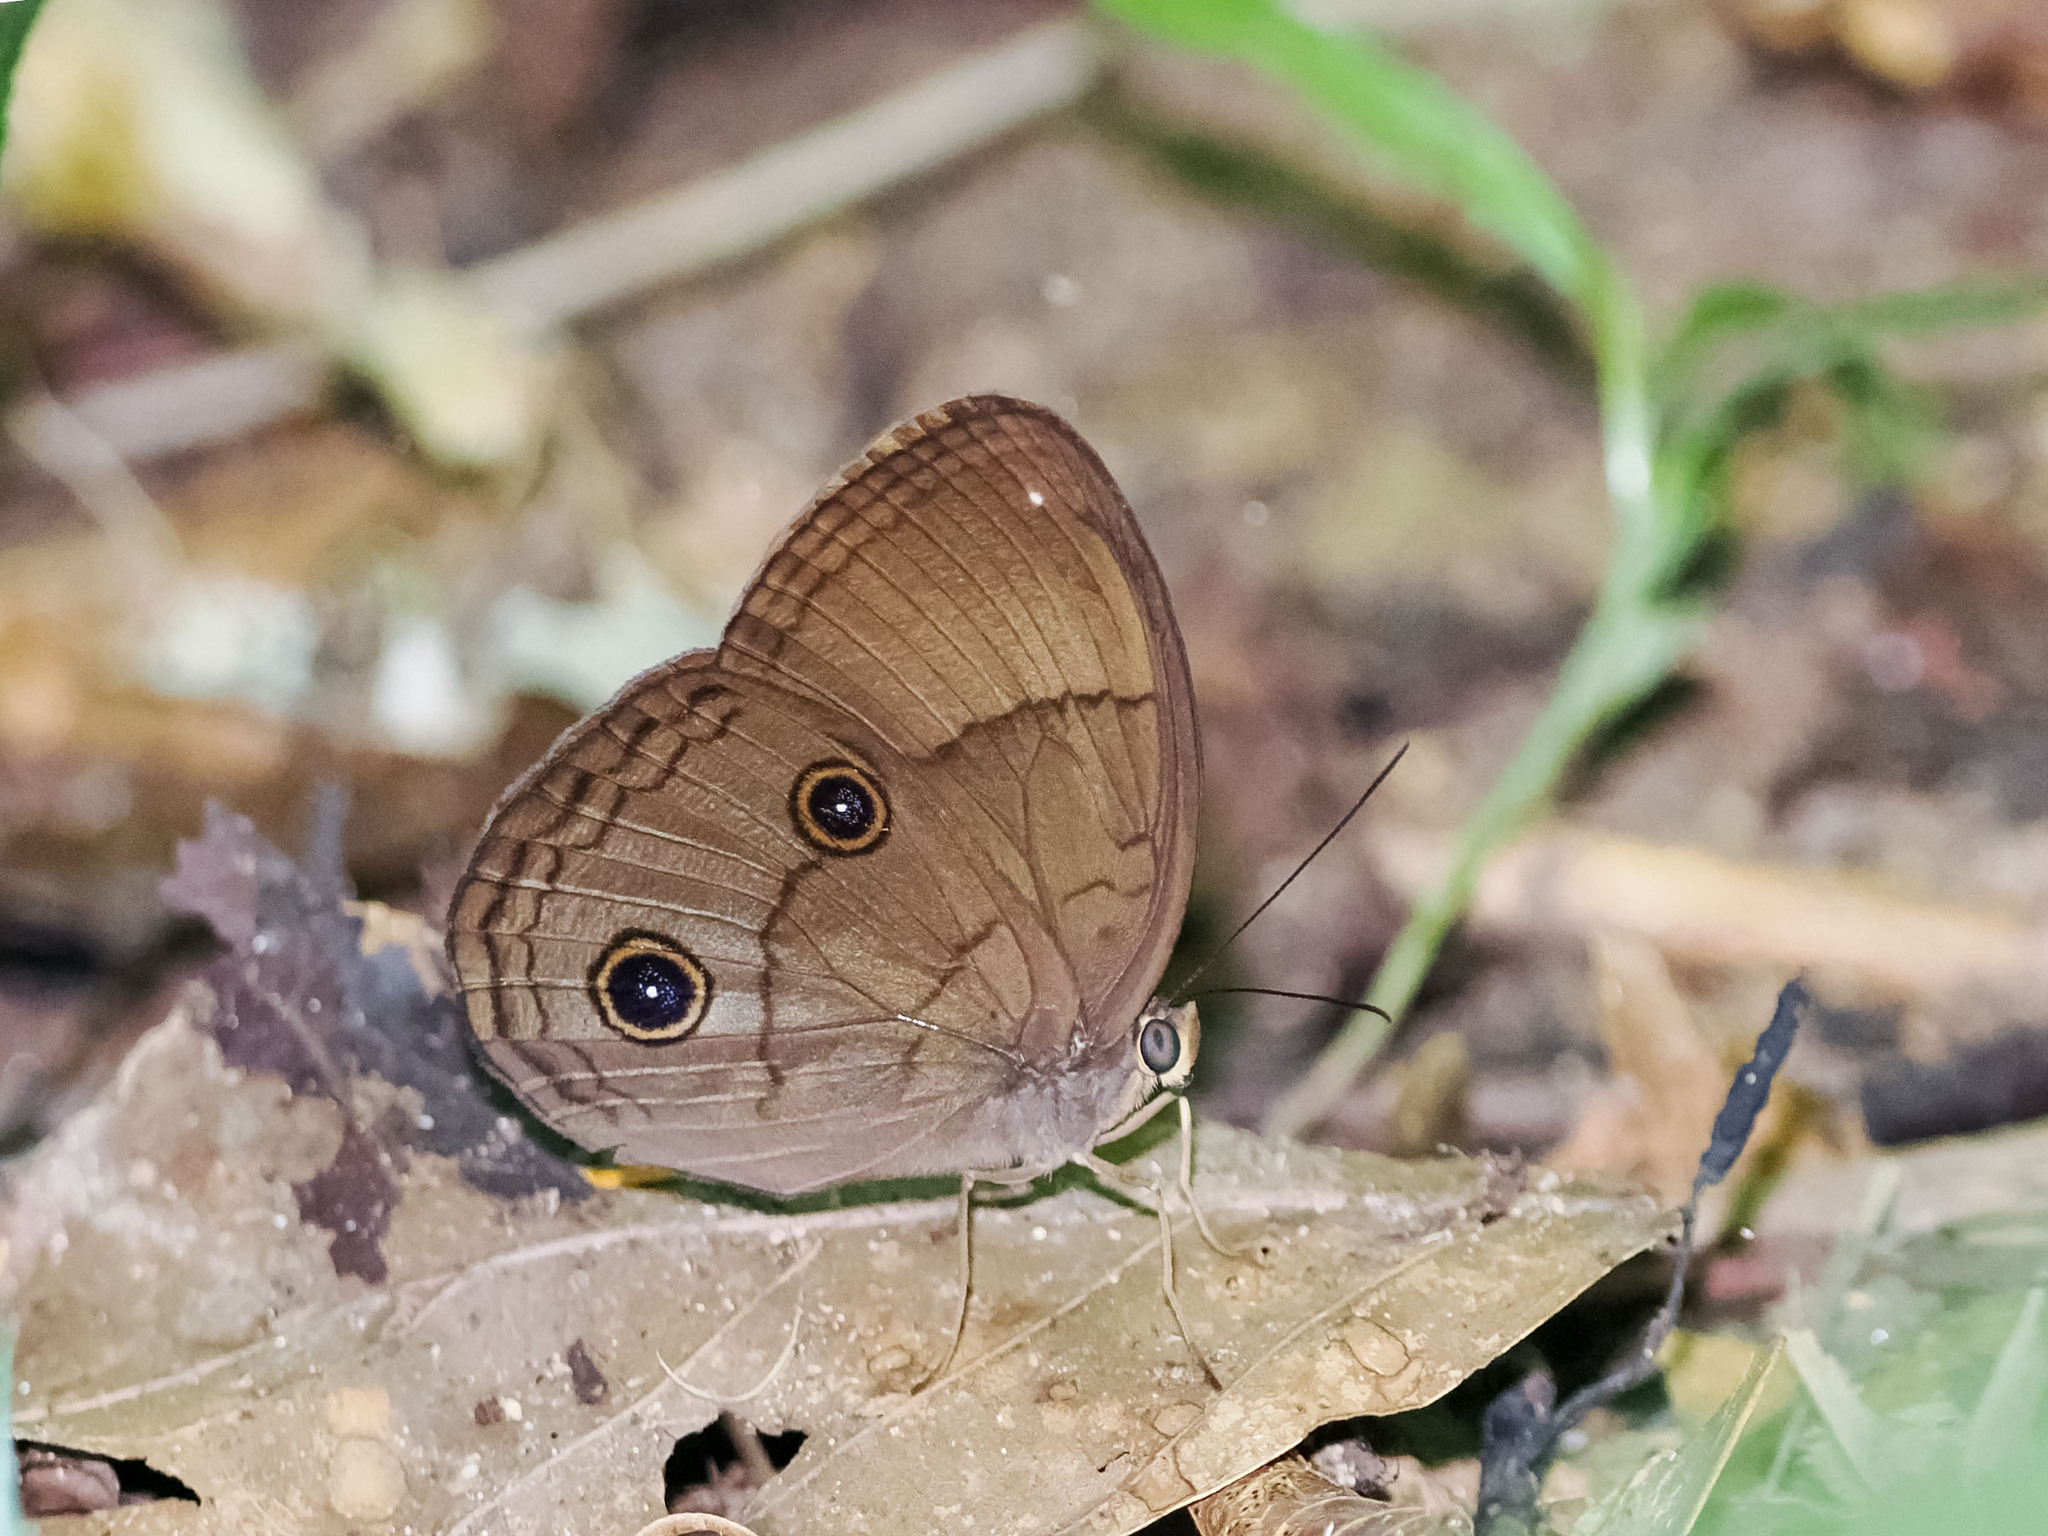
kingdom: Animalia
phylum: Arthropoda
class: Insecta
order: Lepidoptera
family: Nymphalidae
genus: Faunis
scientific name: Faunis phaon
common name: Faun butterfly
